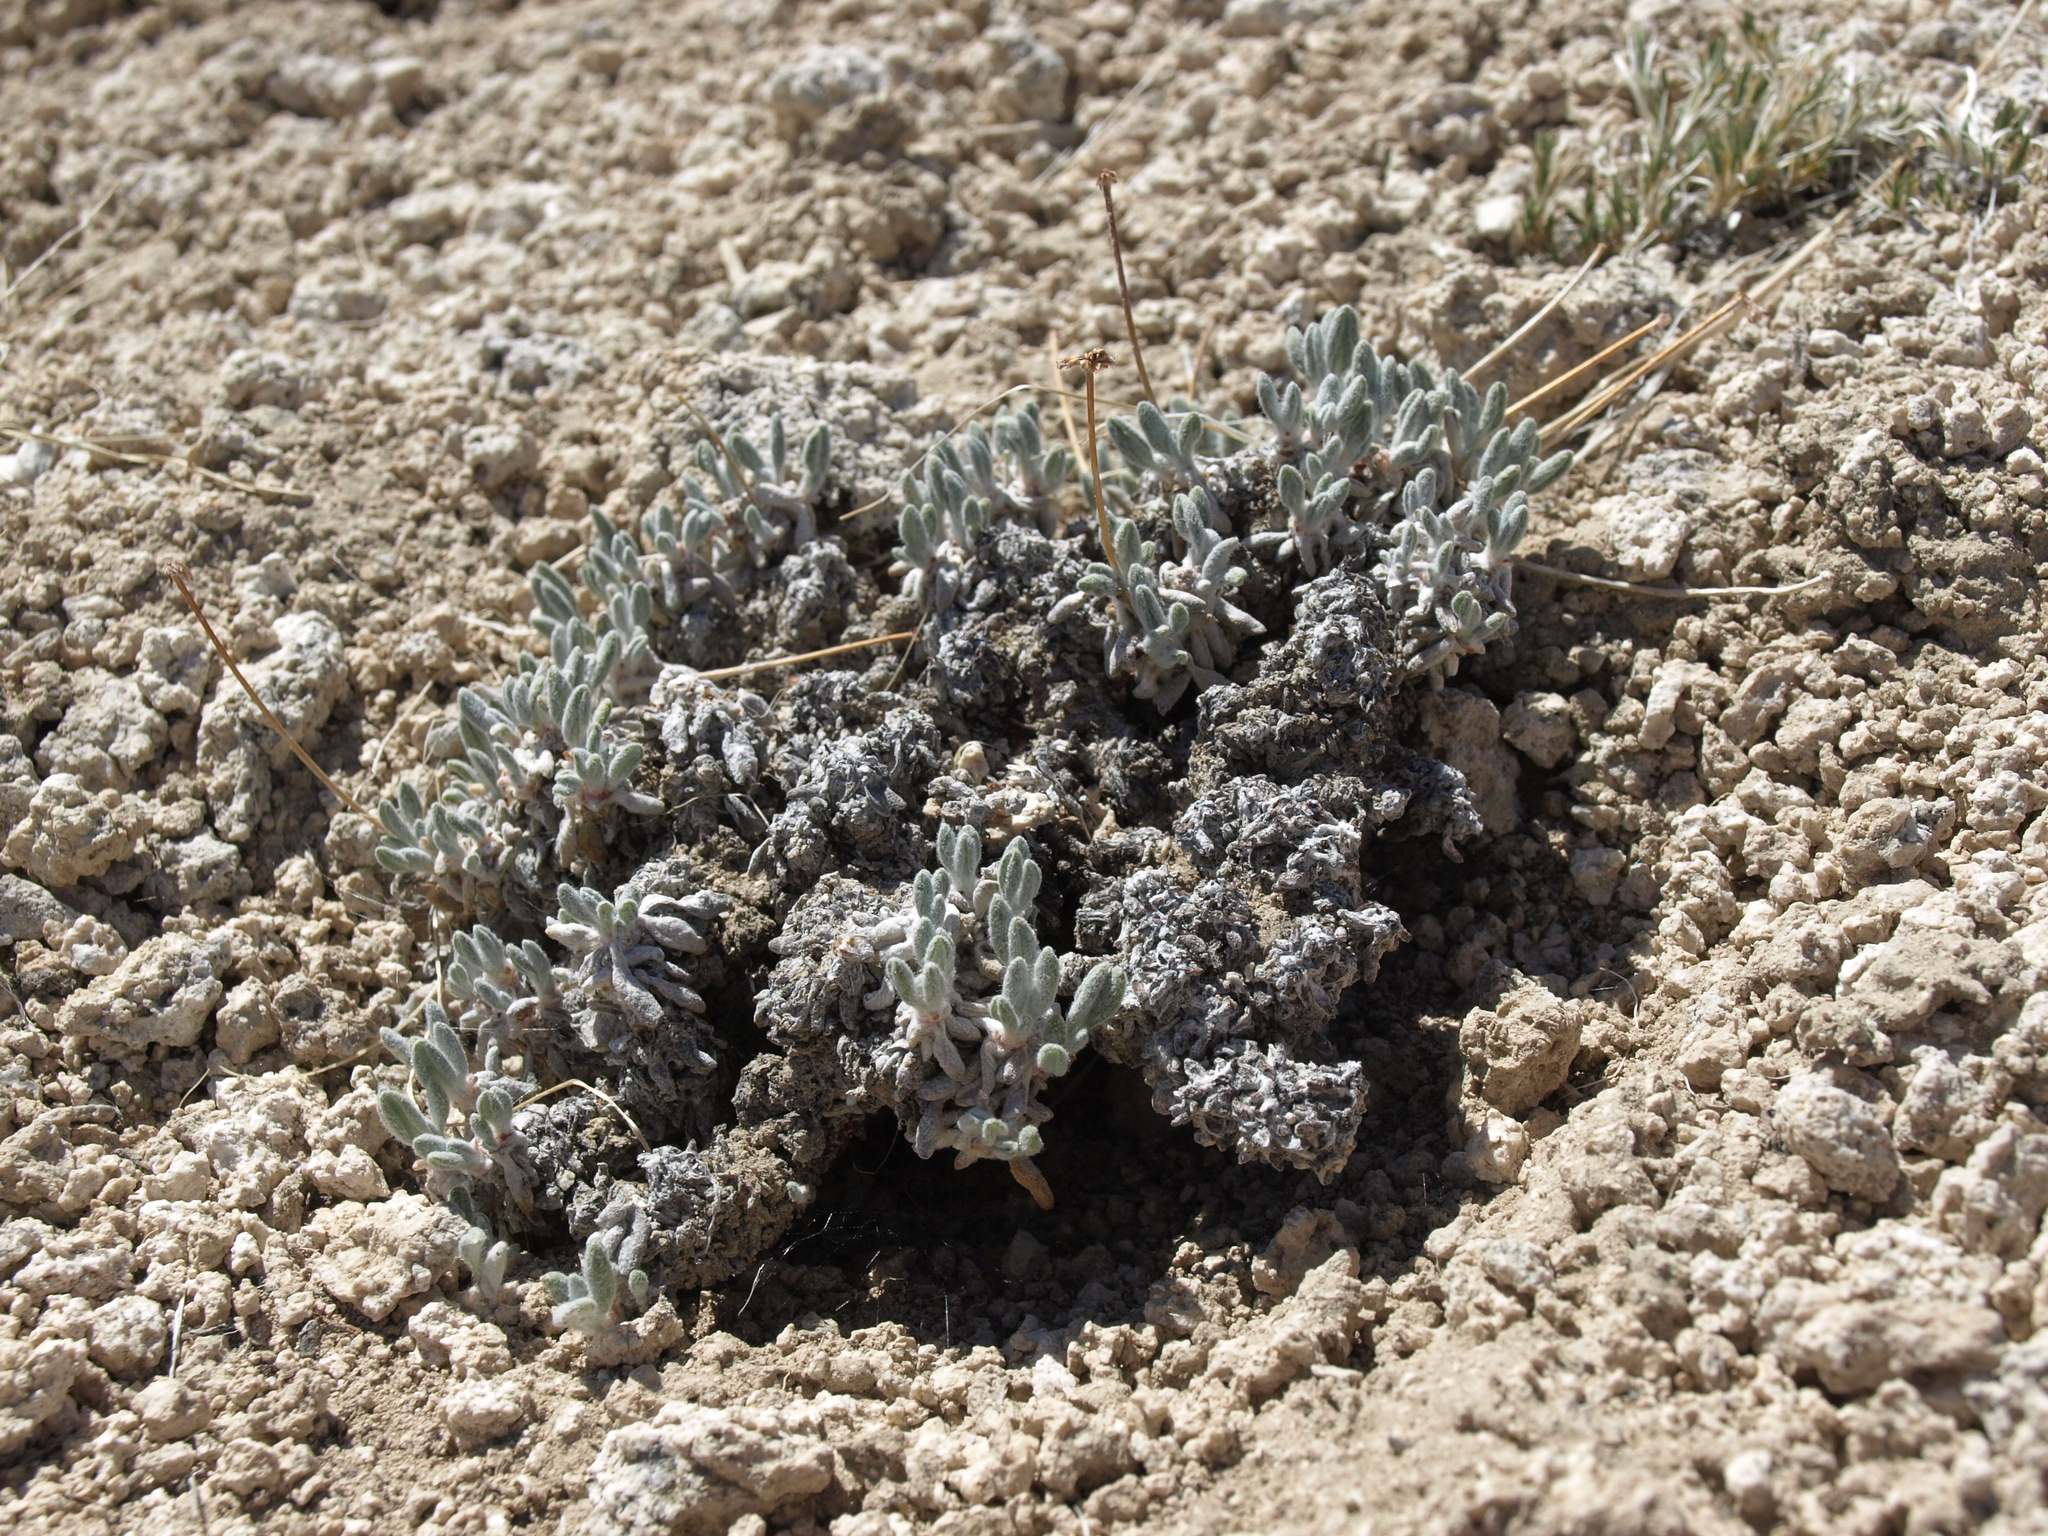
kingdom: Plantae
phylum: Tracheophyta
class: Magnoliopsida
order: Caryophyllales
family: Polygonaceae
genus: Eriogonum
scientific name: Eriogonum tiehmii
